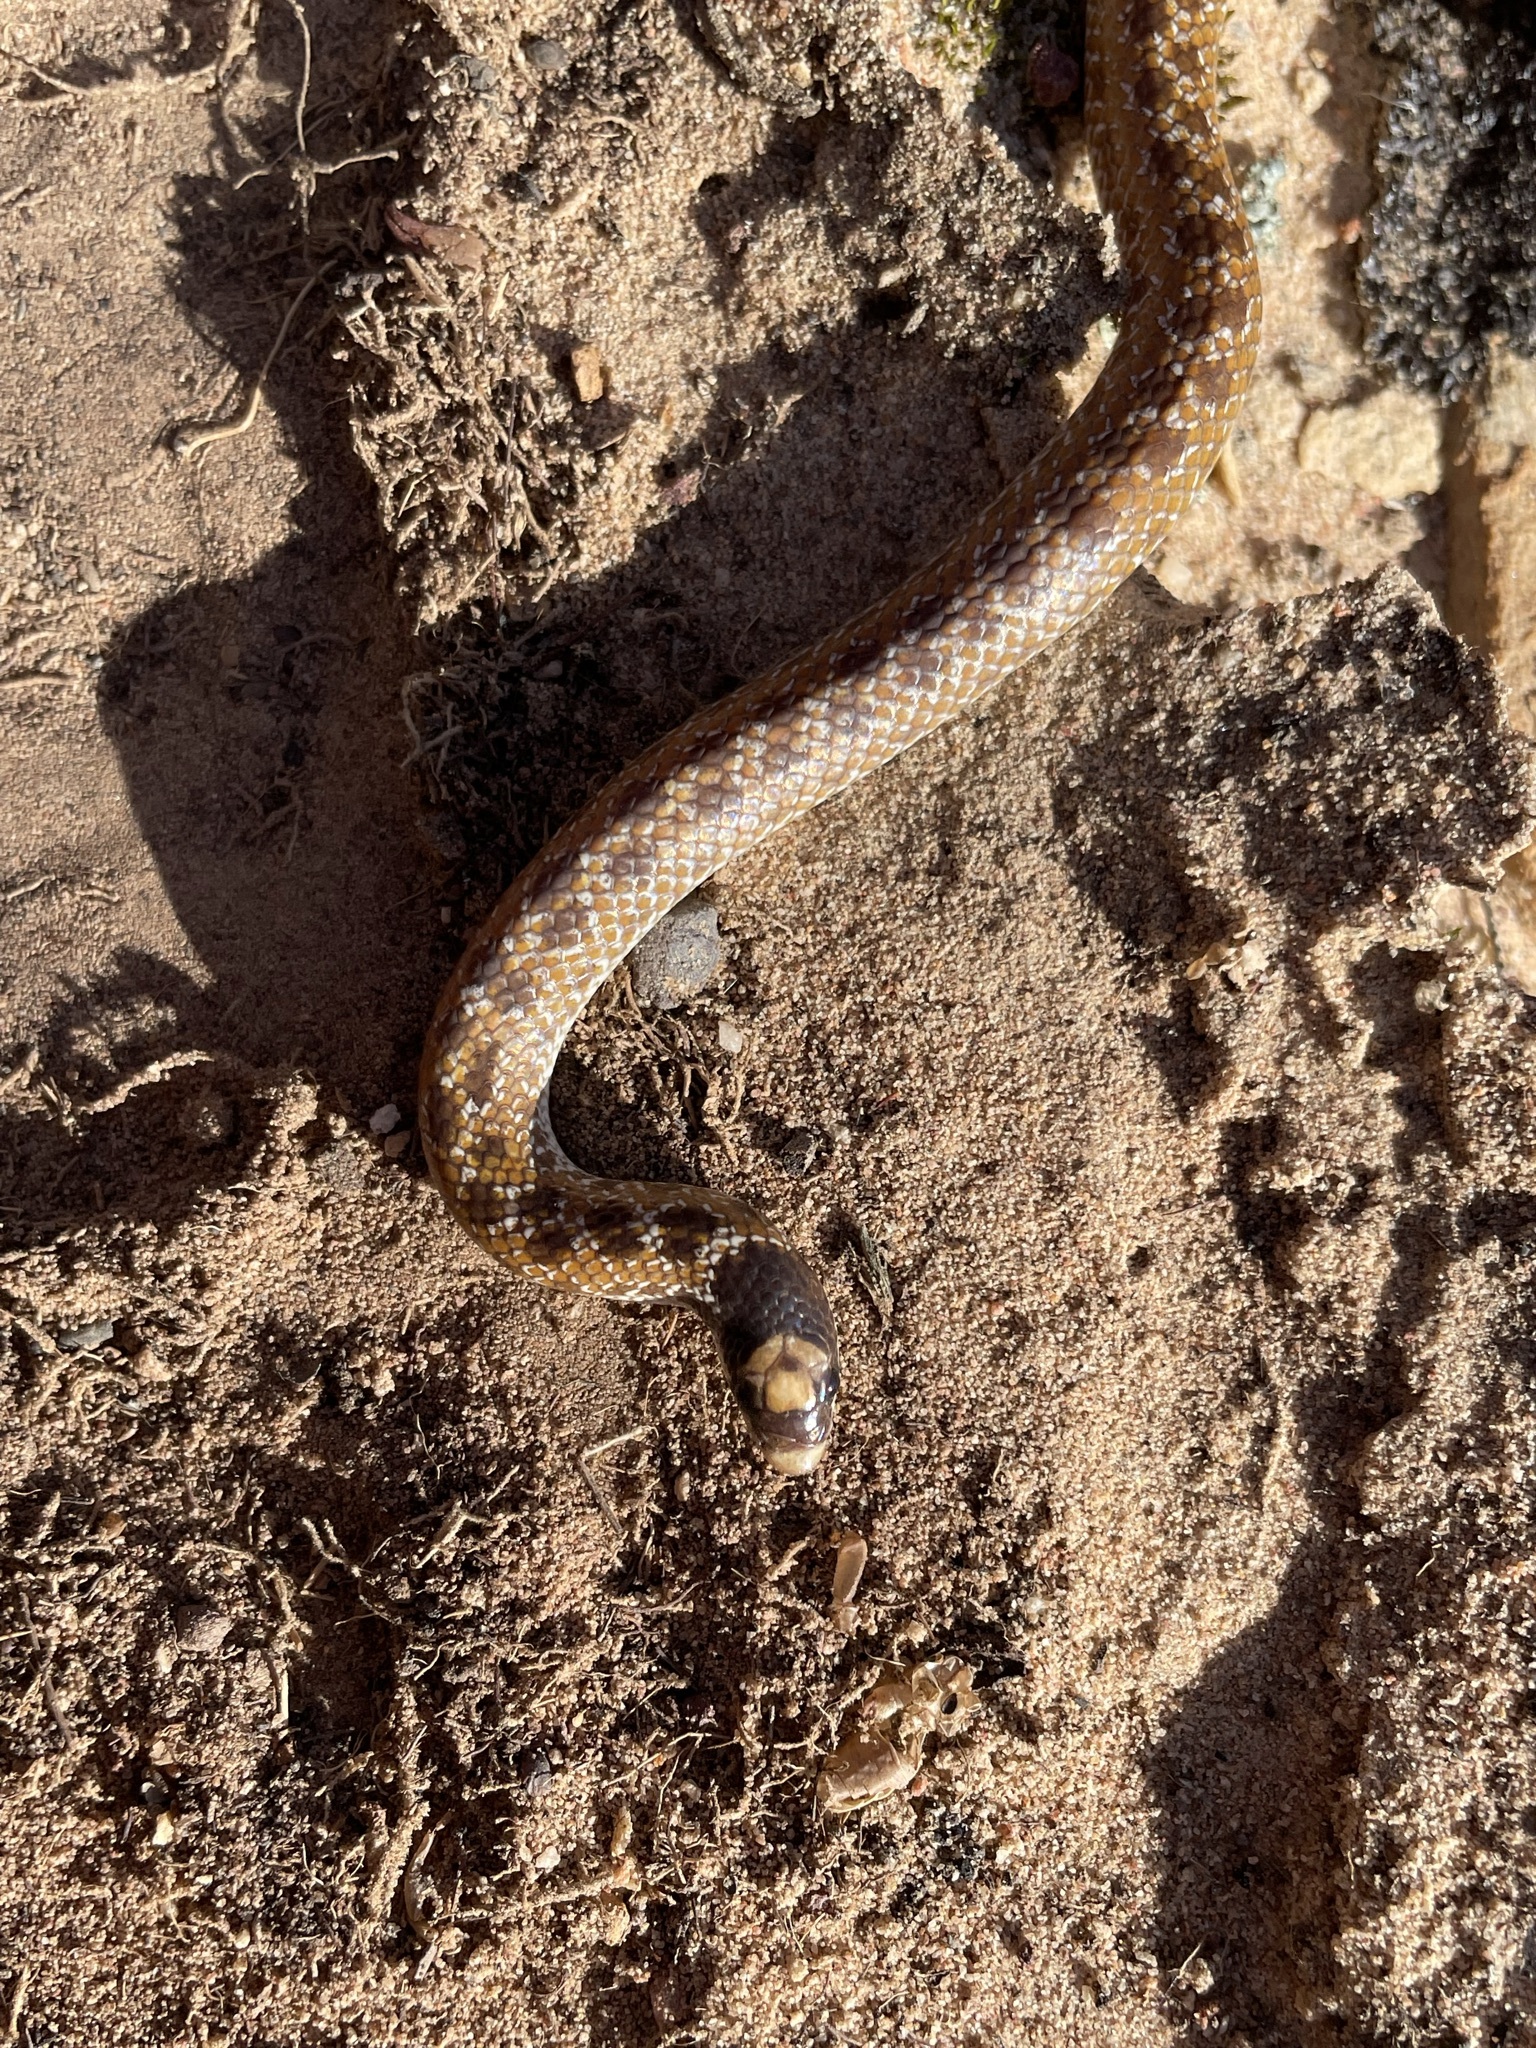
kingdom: Animalia
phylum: Chordata
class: Squamata
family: Prosymnidae
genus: Prosymna
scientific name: Prosymna sundevalli
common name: Sundevall's shovel-snout
